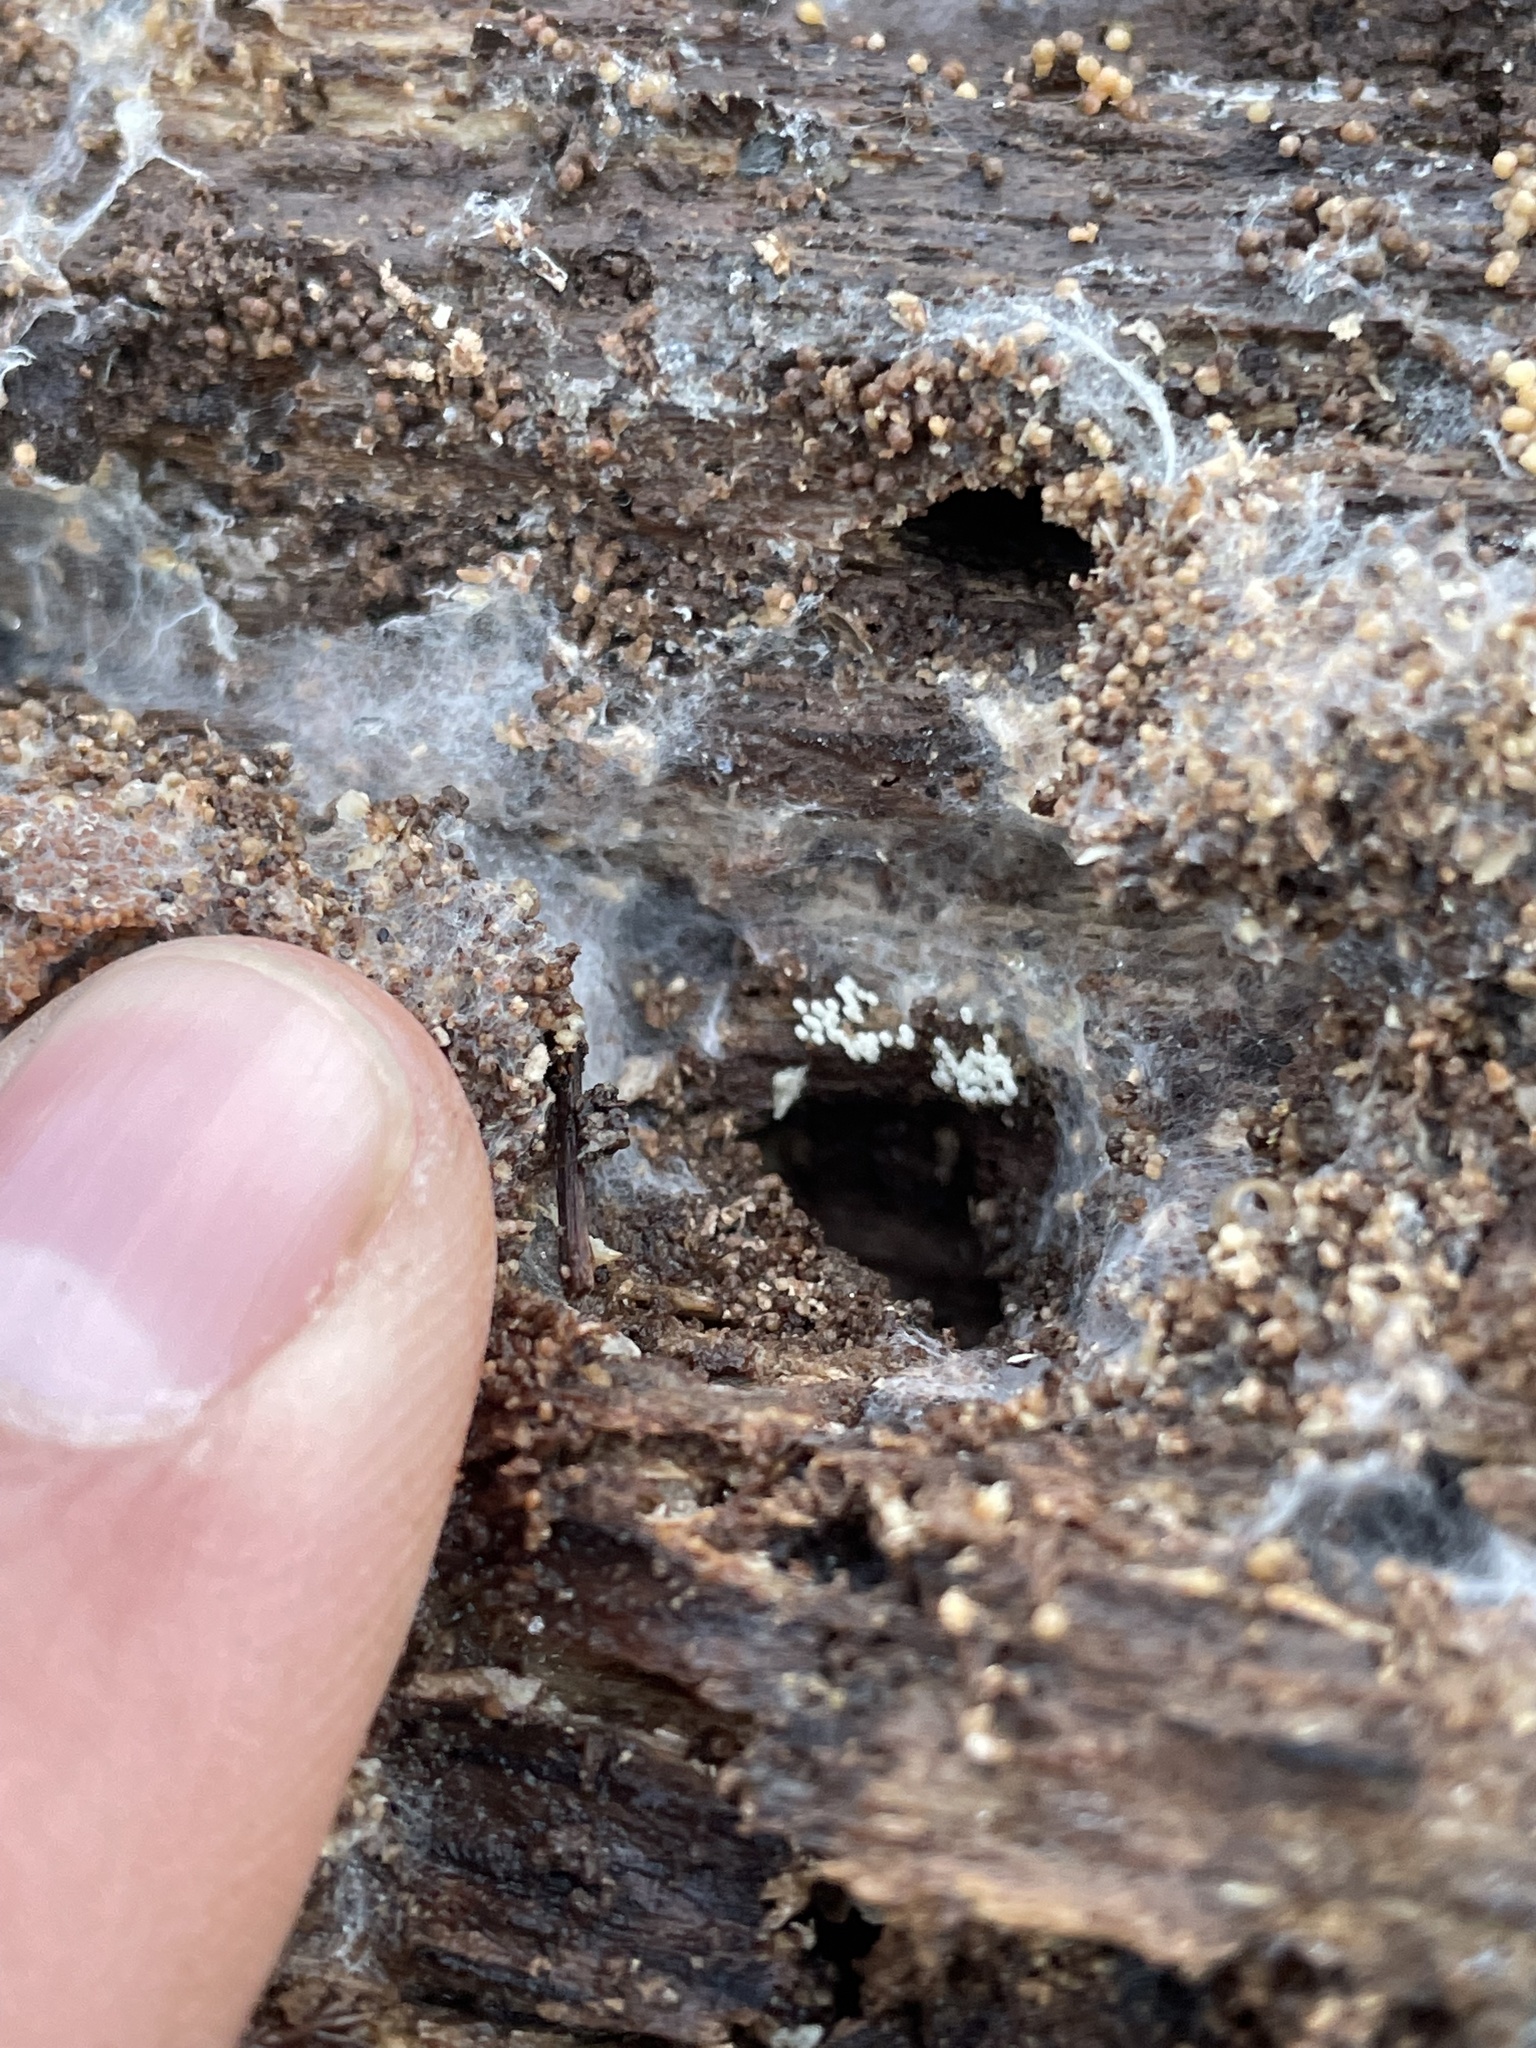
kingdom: Fungi
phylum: Basidiomycota
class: Agaricomycetes
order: Agaricales
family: Marasmiaceae
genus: Henningsomyces
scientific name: Henningsomyces candidus
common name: White tubelet
